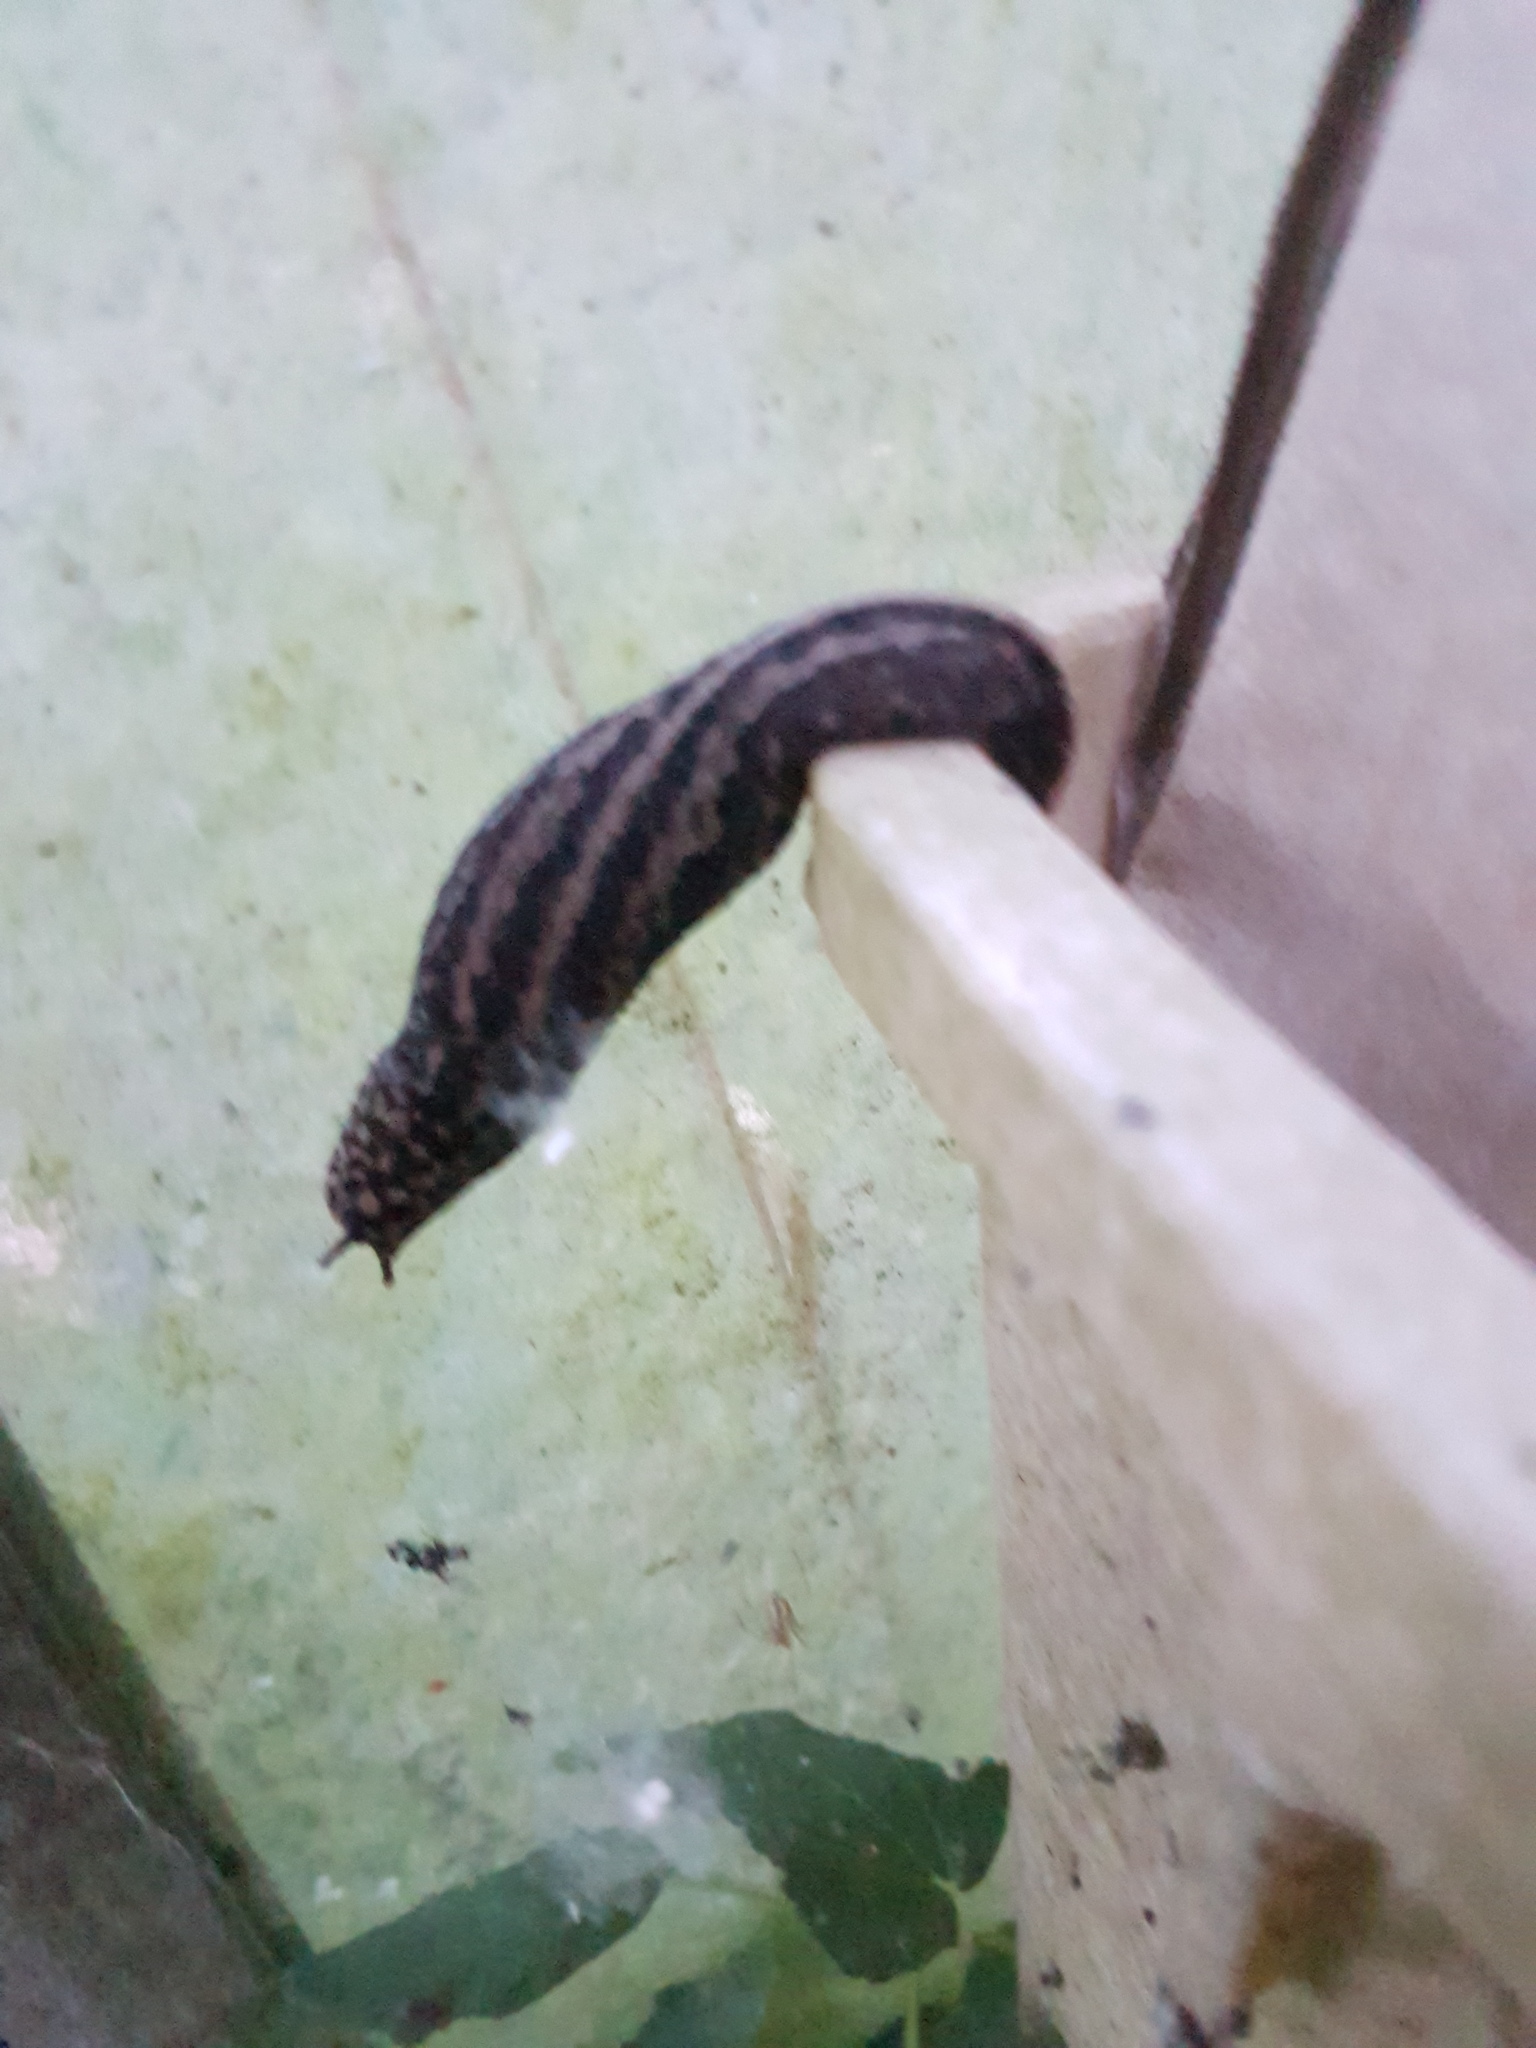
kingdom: Animalia
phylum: Mollusca
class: Gastropoda
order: Stylommatophora
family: Limacidae
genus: Limax
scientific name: Limax maximus
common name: Great grey slug
